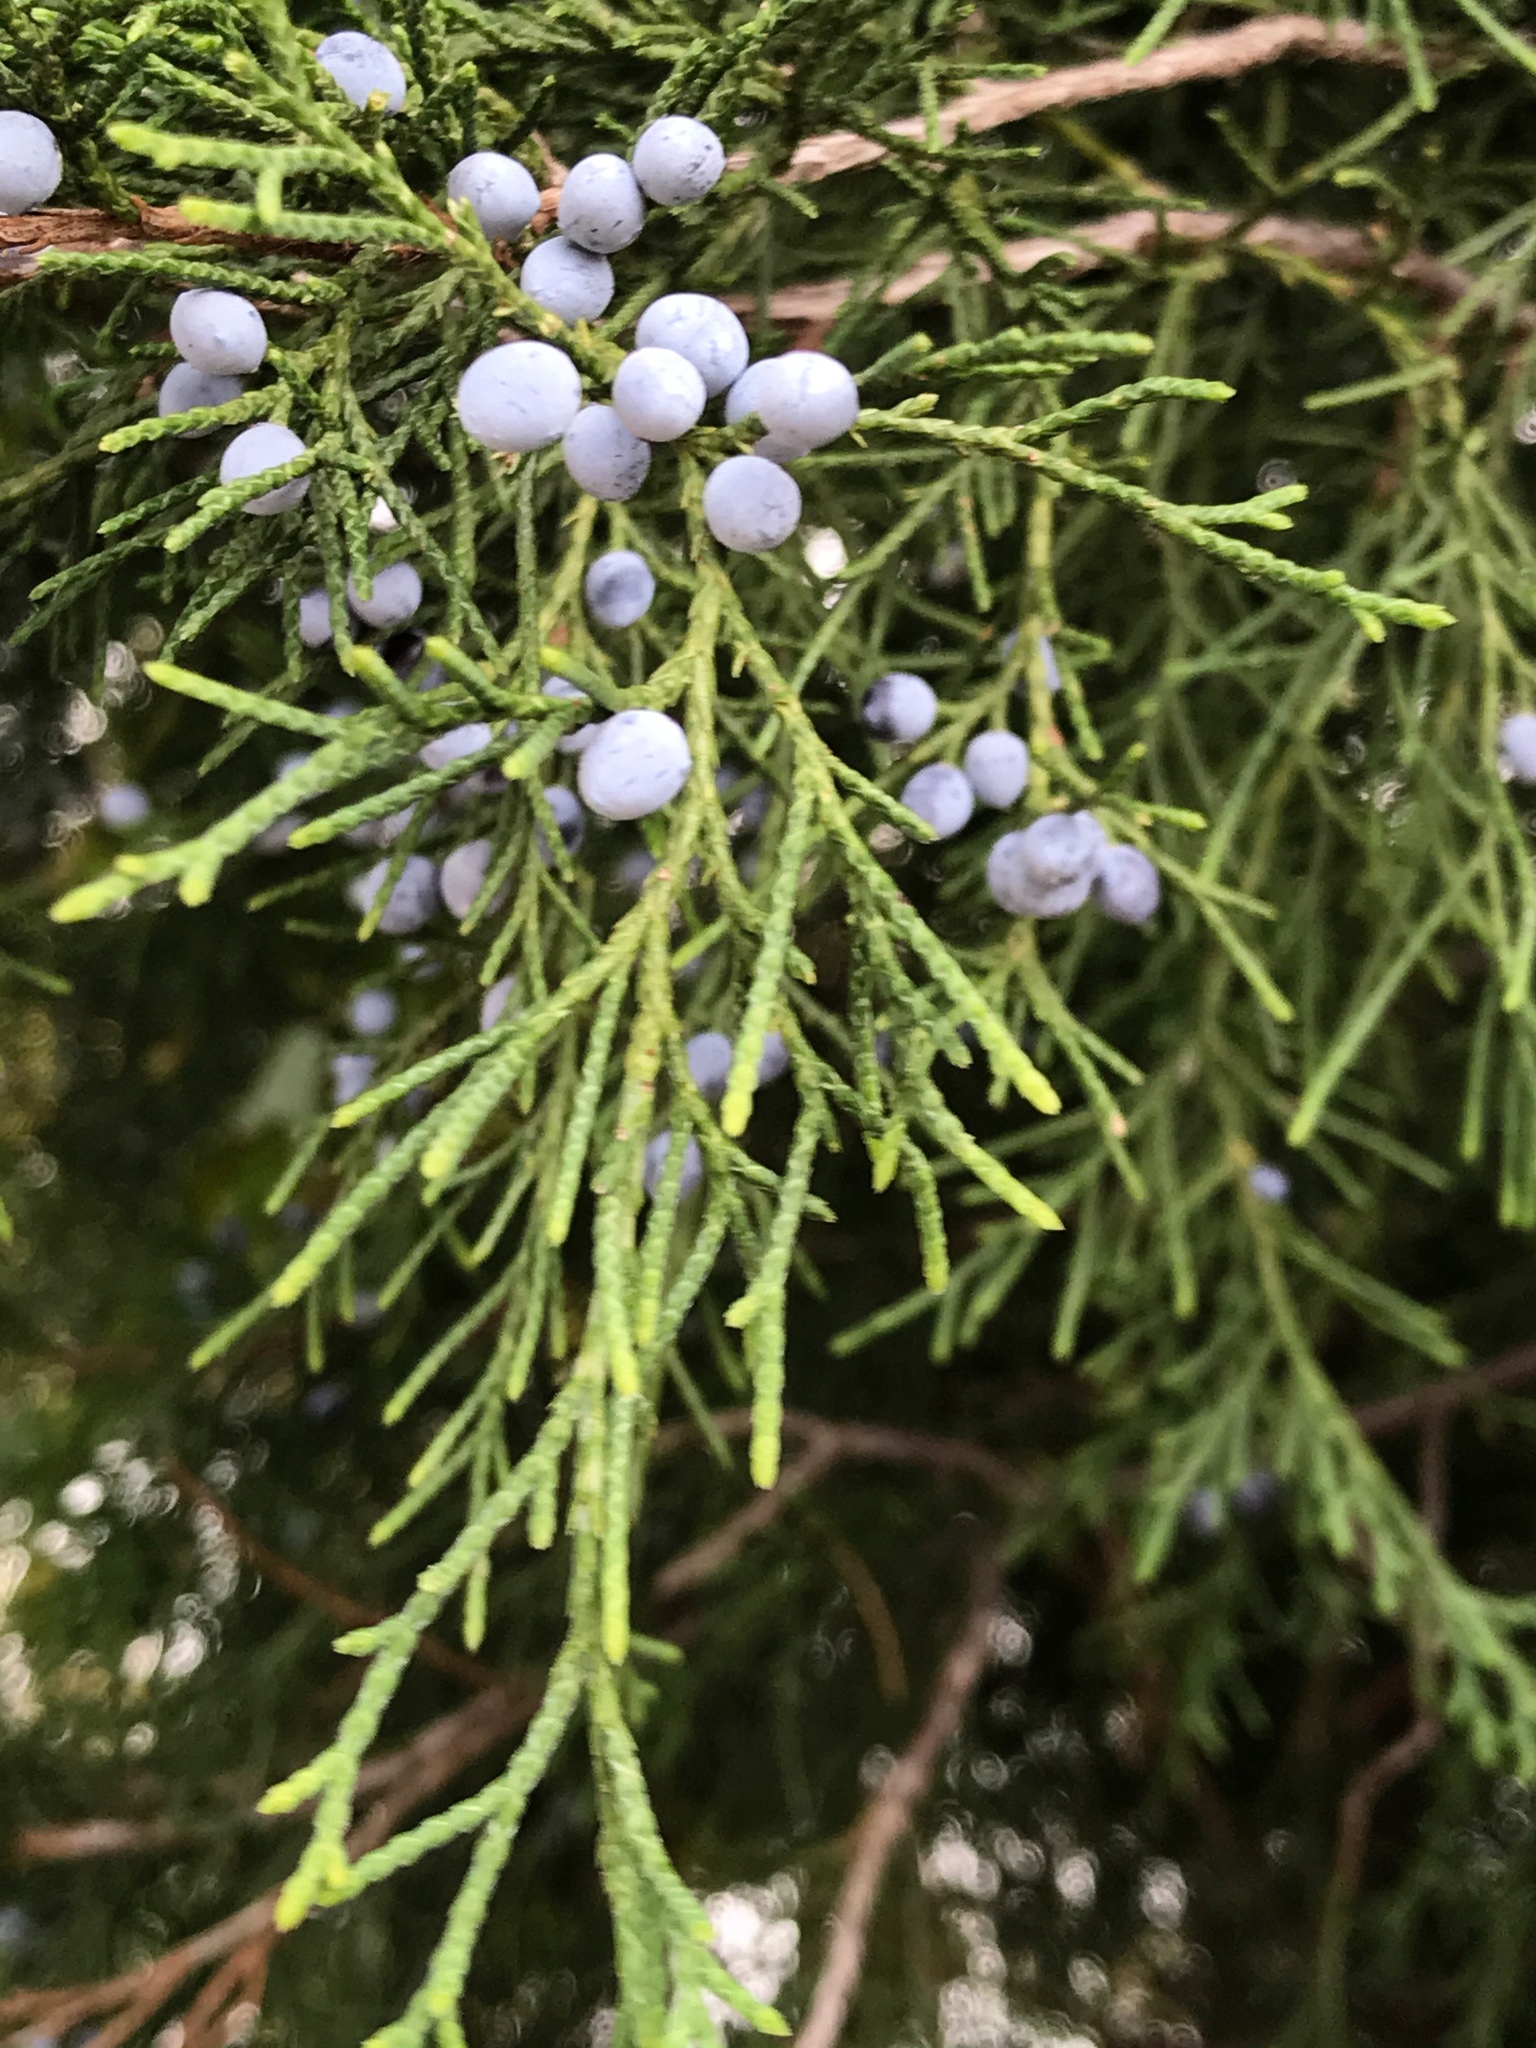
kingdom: Plantae
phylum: Tracheophyta
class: Pinopsida
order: Pinales
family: Cupressaceae
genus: Juniperus
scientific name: Juniperus virginiana
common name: Red juniper
